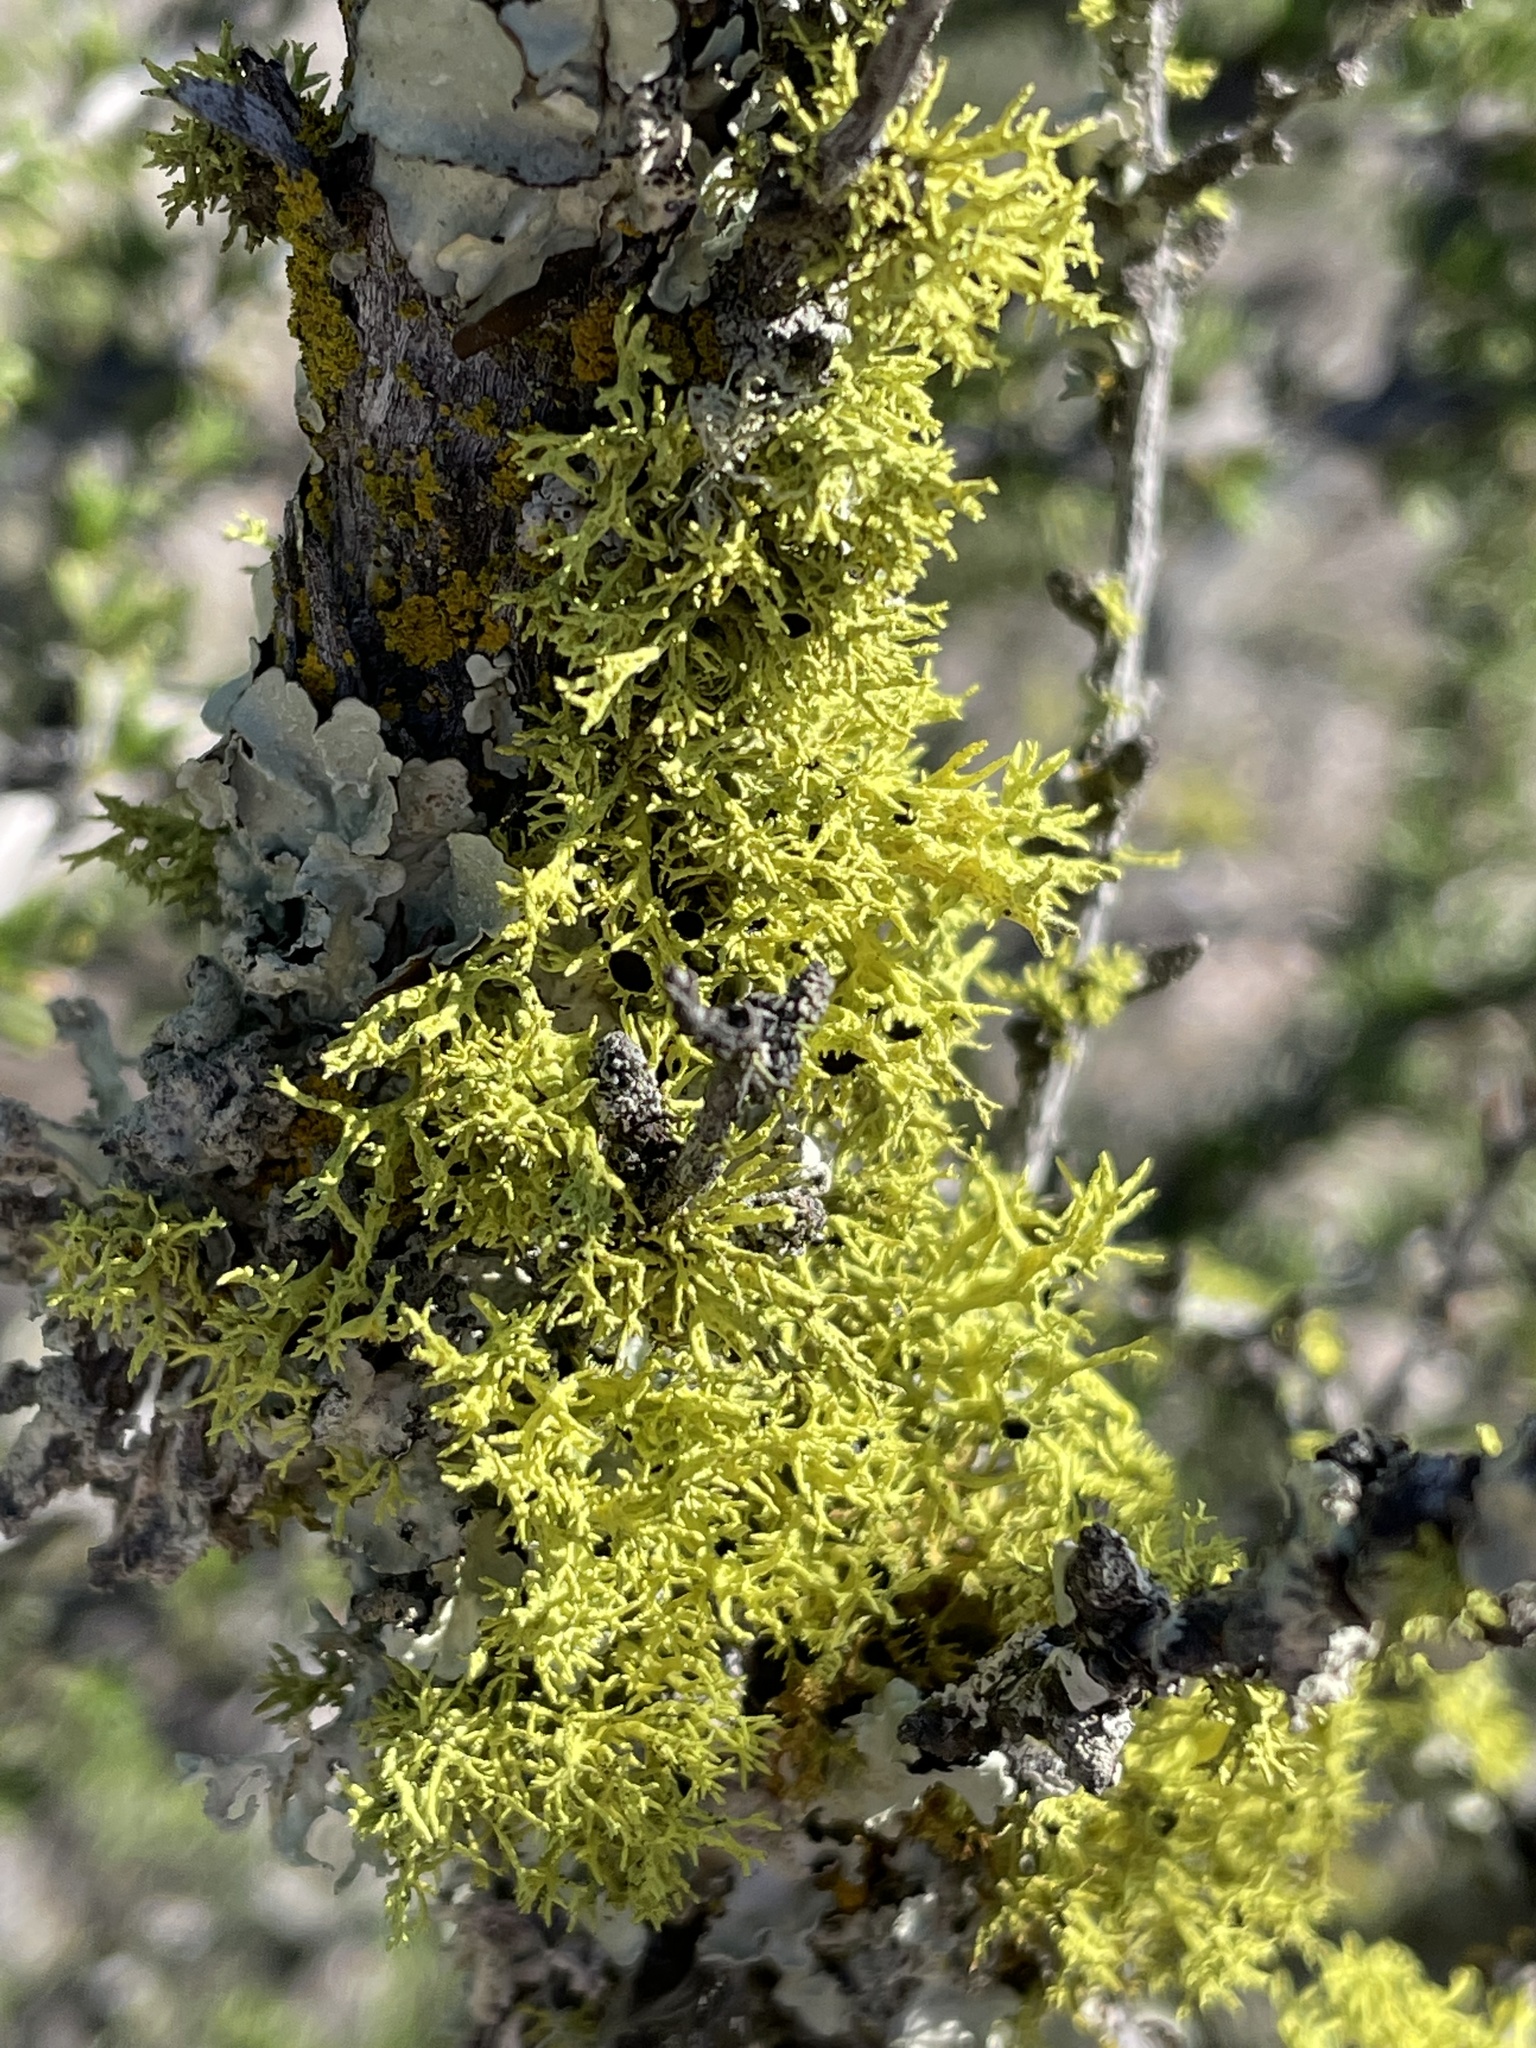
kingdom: Plantae
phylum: Tracheophyta
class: Magnoliopsida
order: Rosales
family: Rosaceae
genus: Adenostoma
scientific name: Adenostoma fasciculatum
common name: Chamise
